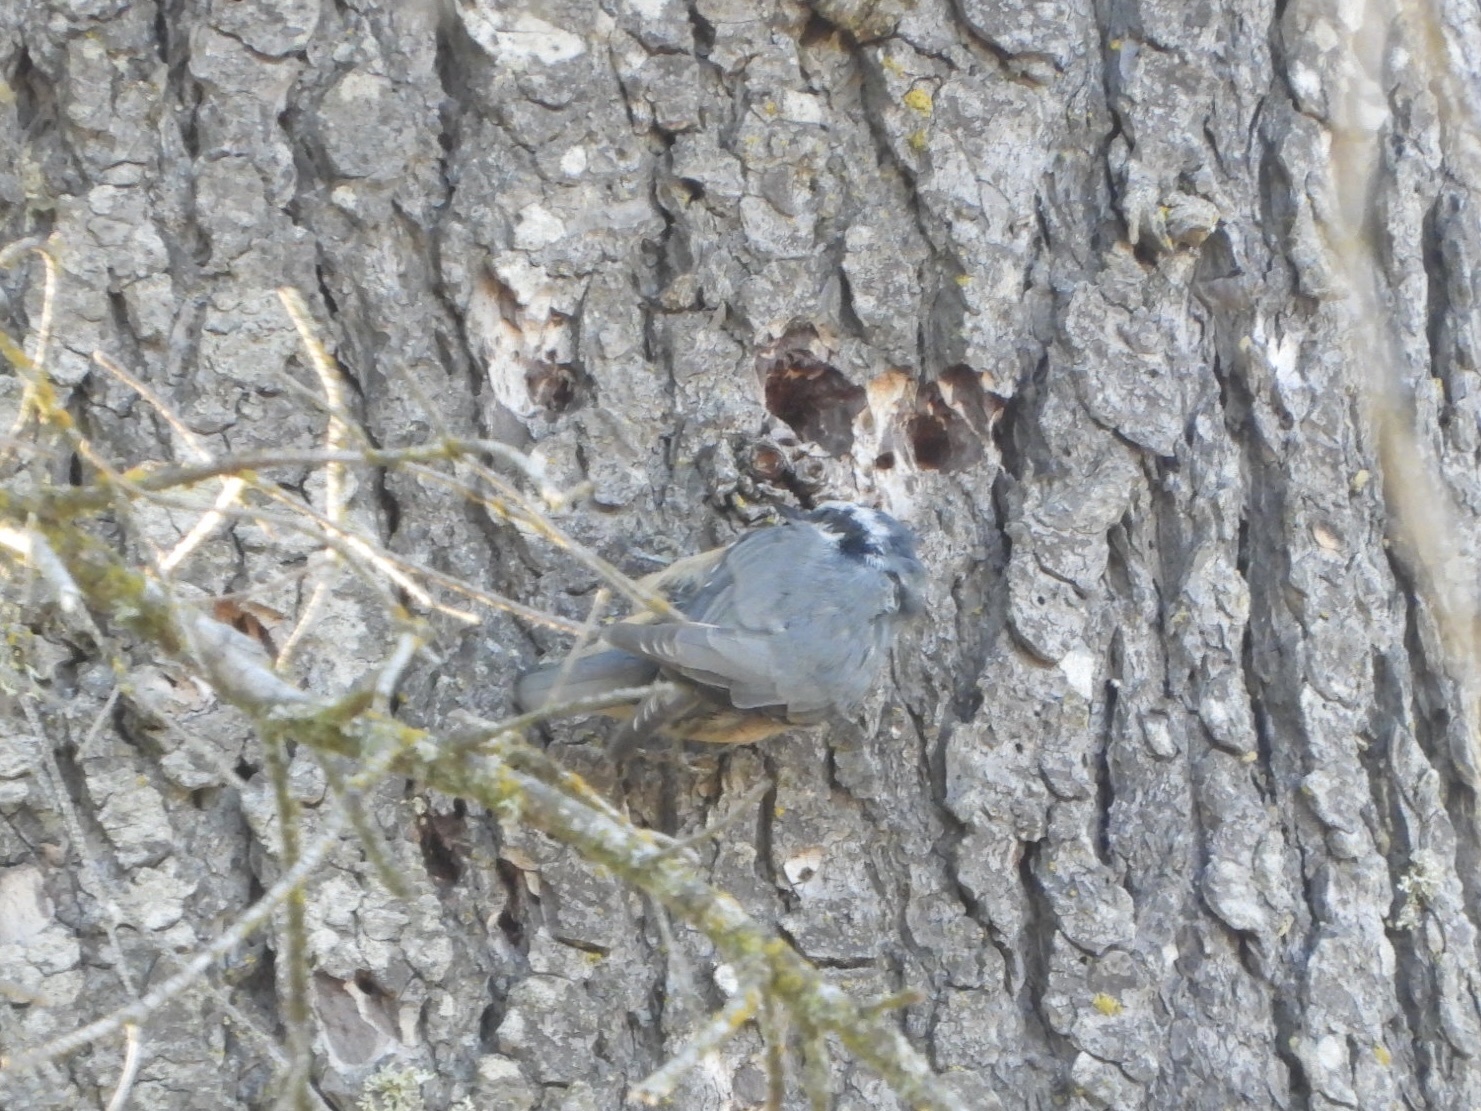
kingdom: Animalia
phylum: Chordata
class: Aves
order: Passeriformes
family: Sittidae
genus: Sitta
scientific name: Sitta canadensis
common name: Red-breasted nuthatch
